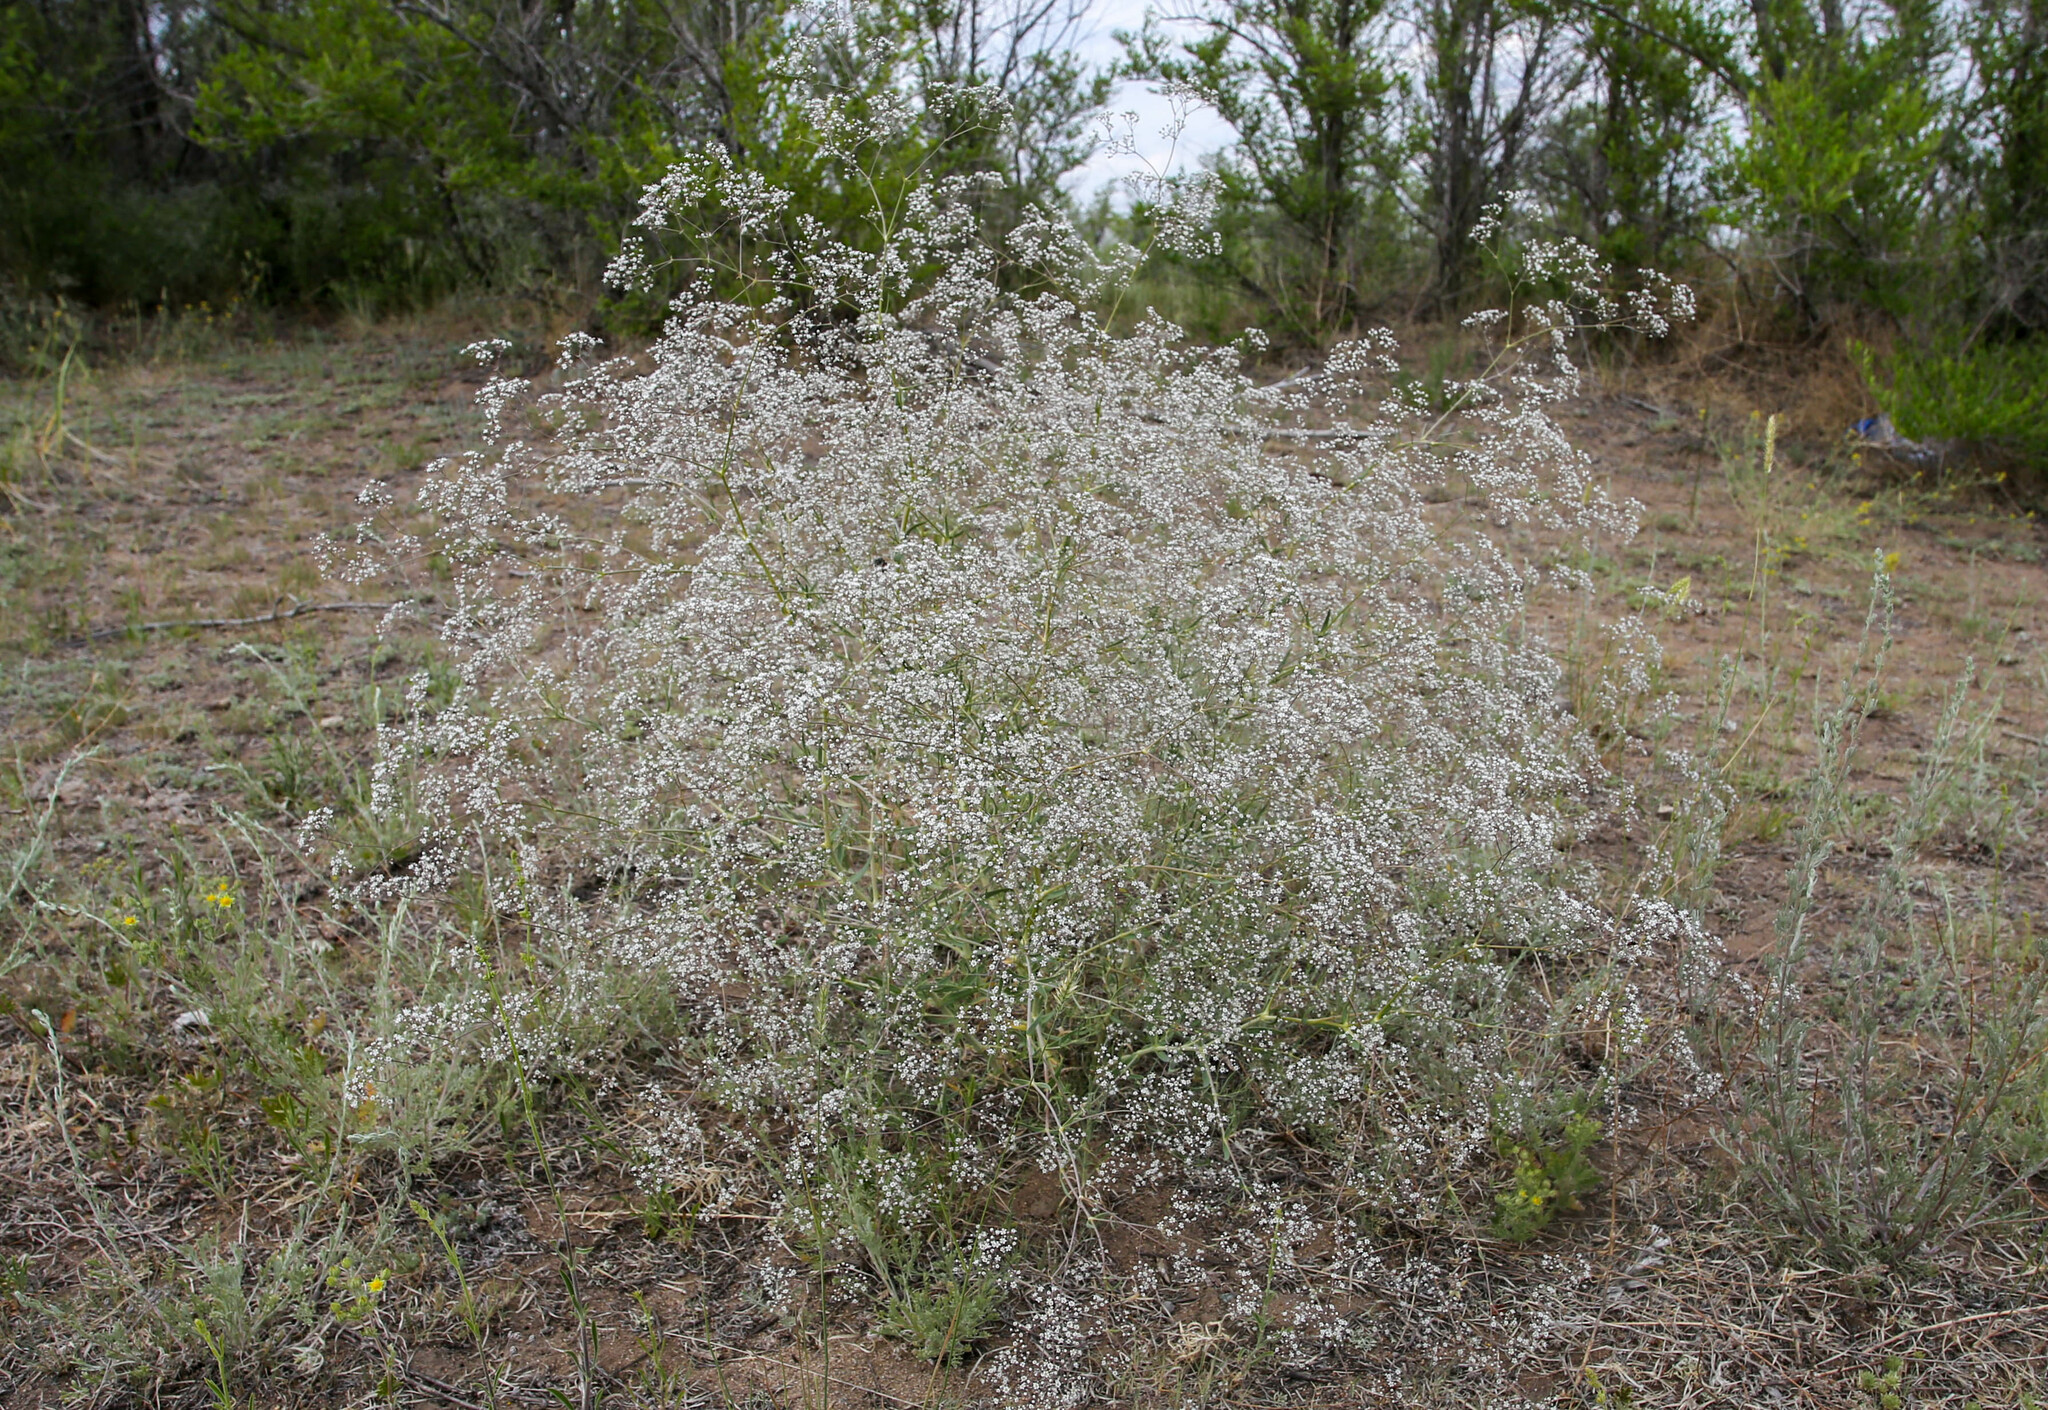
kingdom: Plantae
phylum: Tracheophyta
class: Magnoliopsida
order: Caryophyllales
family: Caryophyllaceae
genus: Gypsophila
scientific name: Gypsophila paniculata
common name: Baby's-breath
